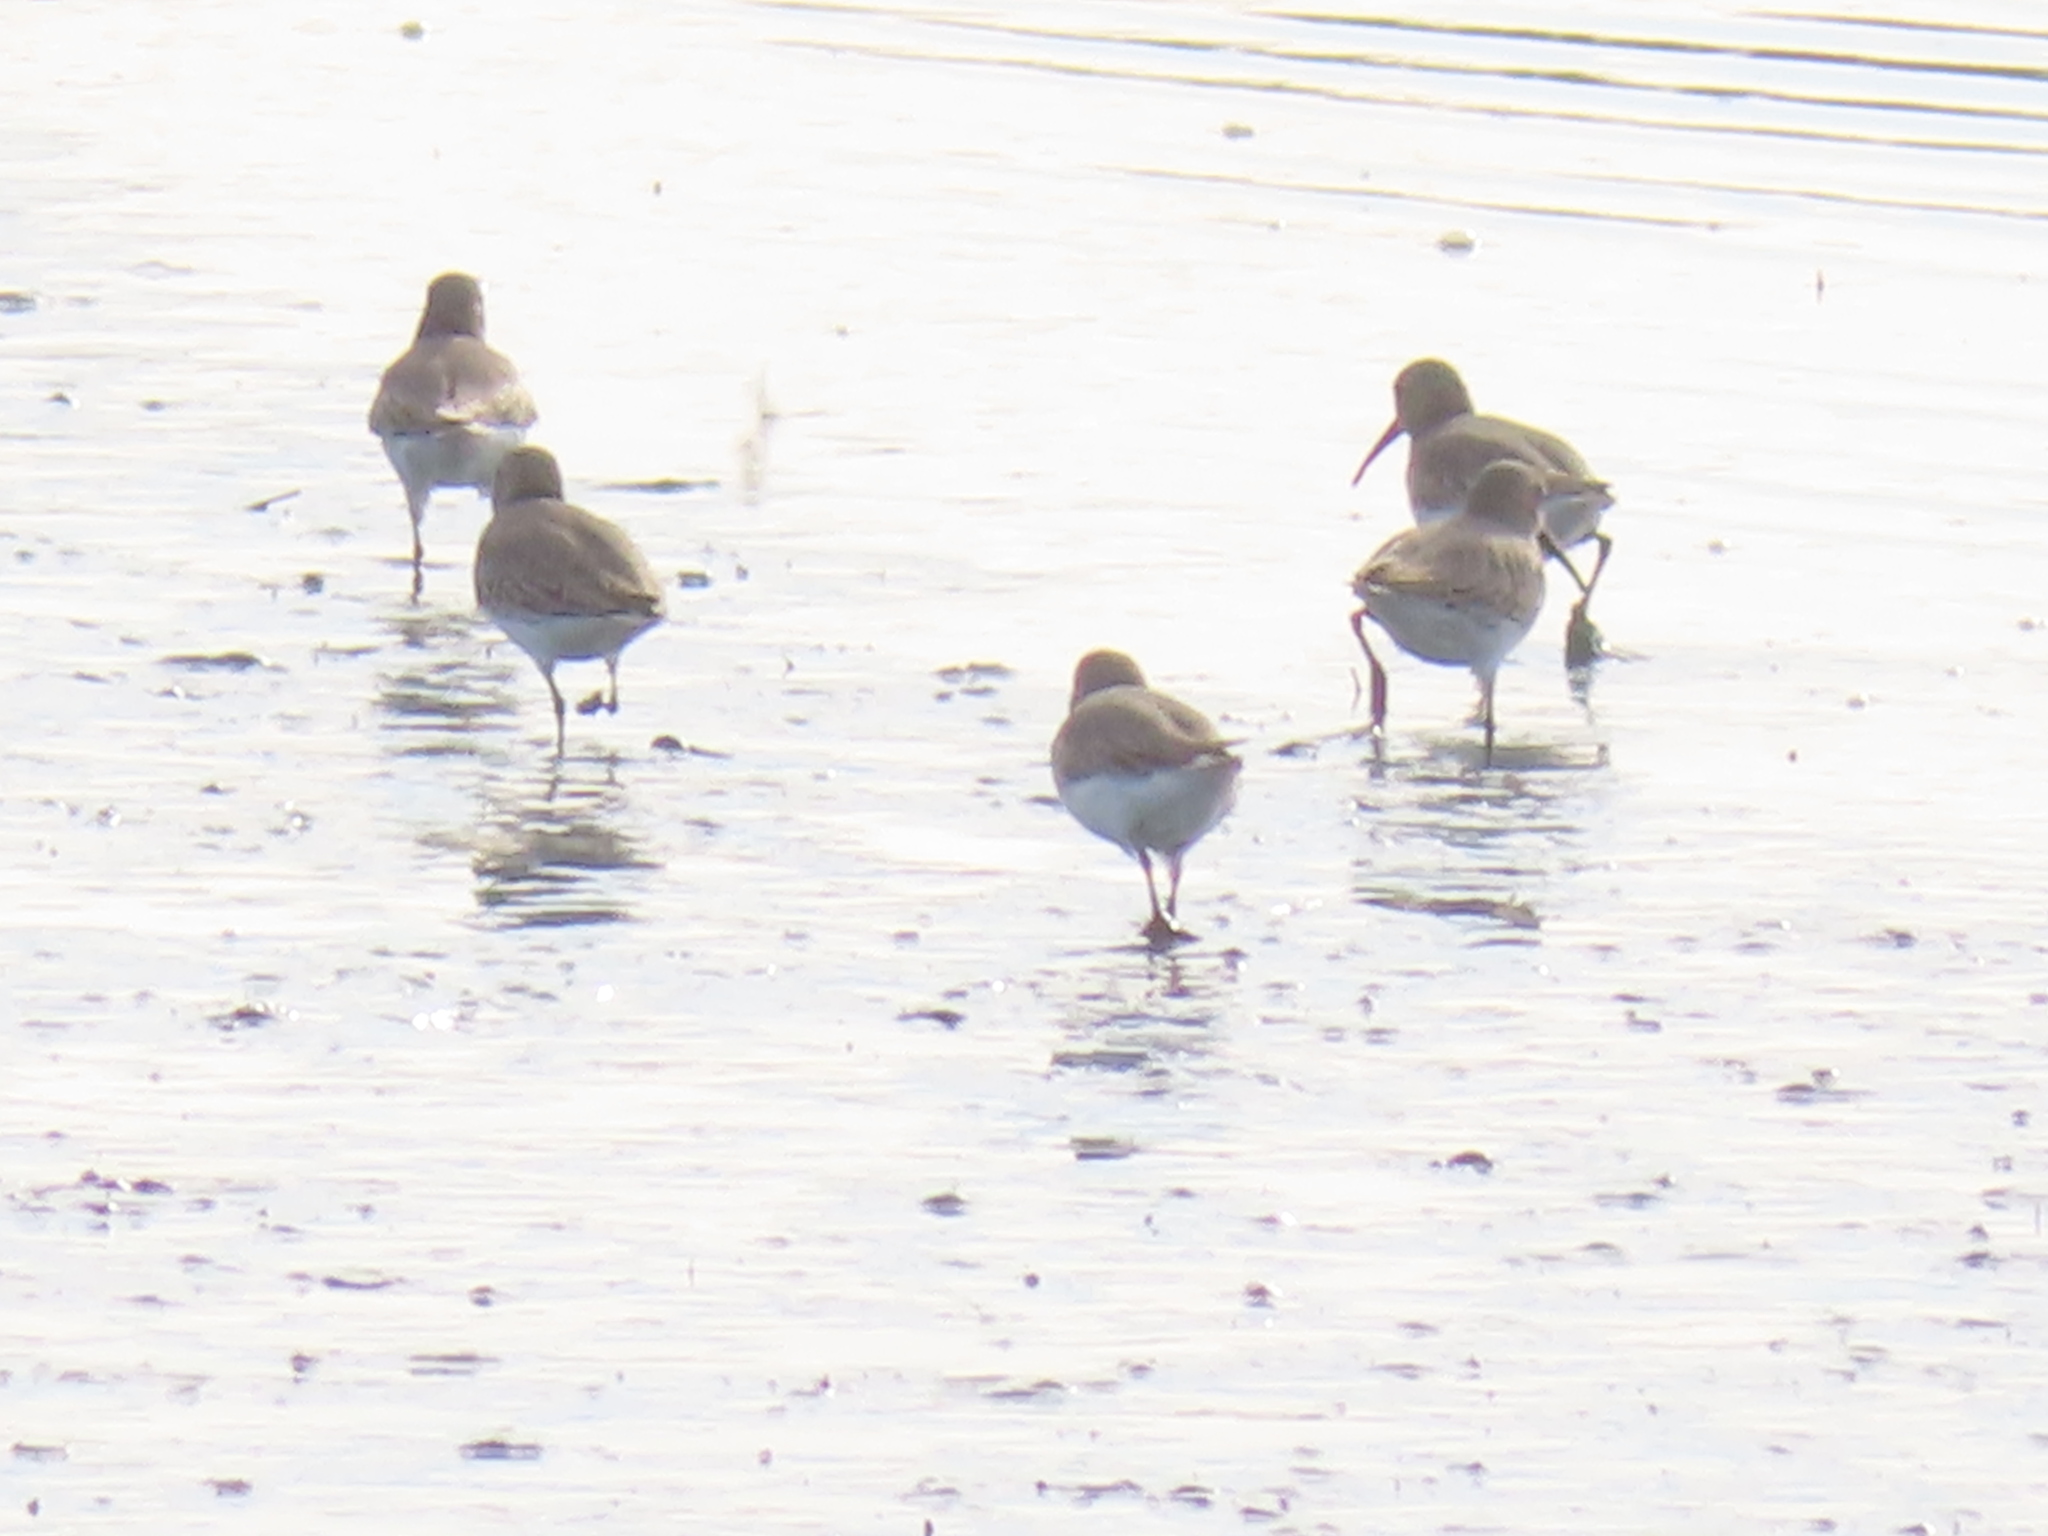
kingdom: Animalia
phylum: Chordata
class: Aves
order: Charadriiformes
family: Scolopacidae
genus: Calidris
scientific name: Calidris alpina
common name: Dunlin
